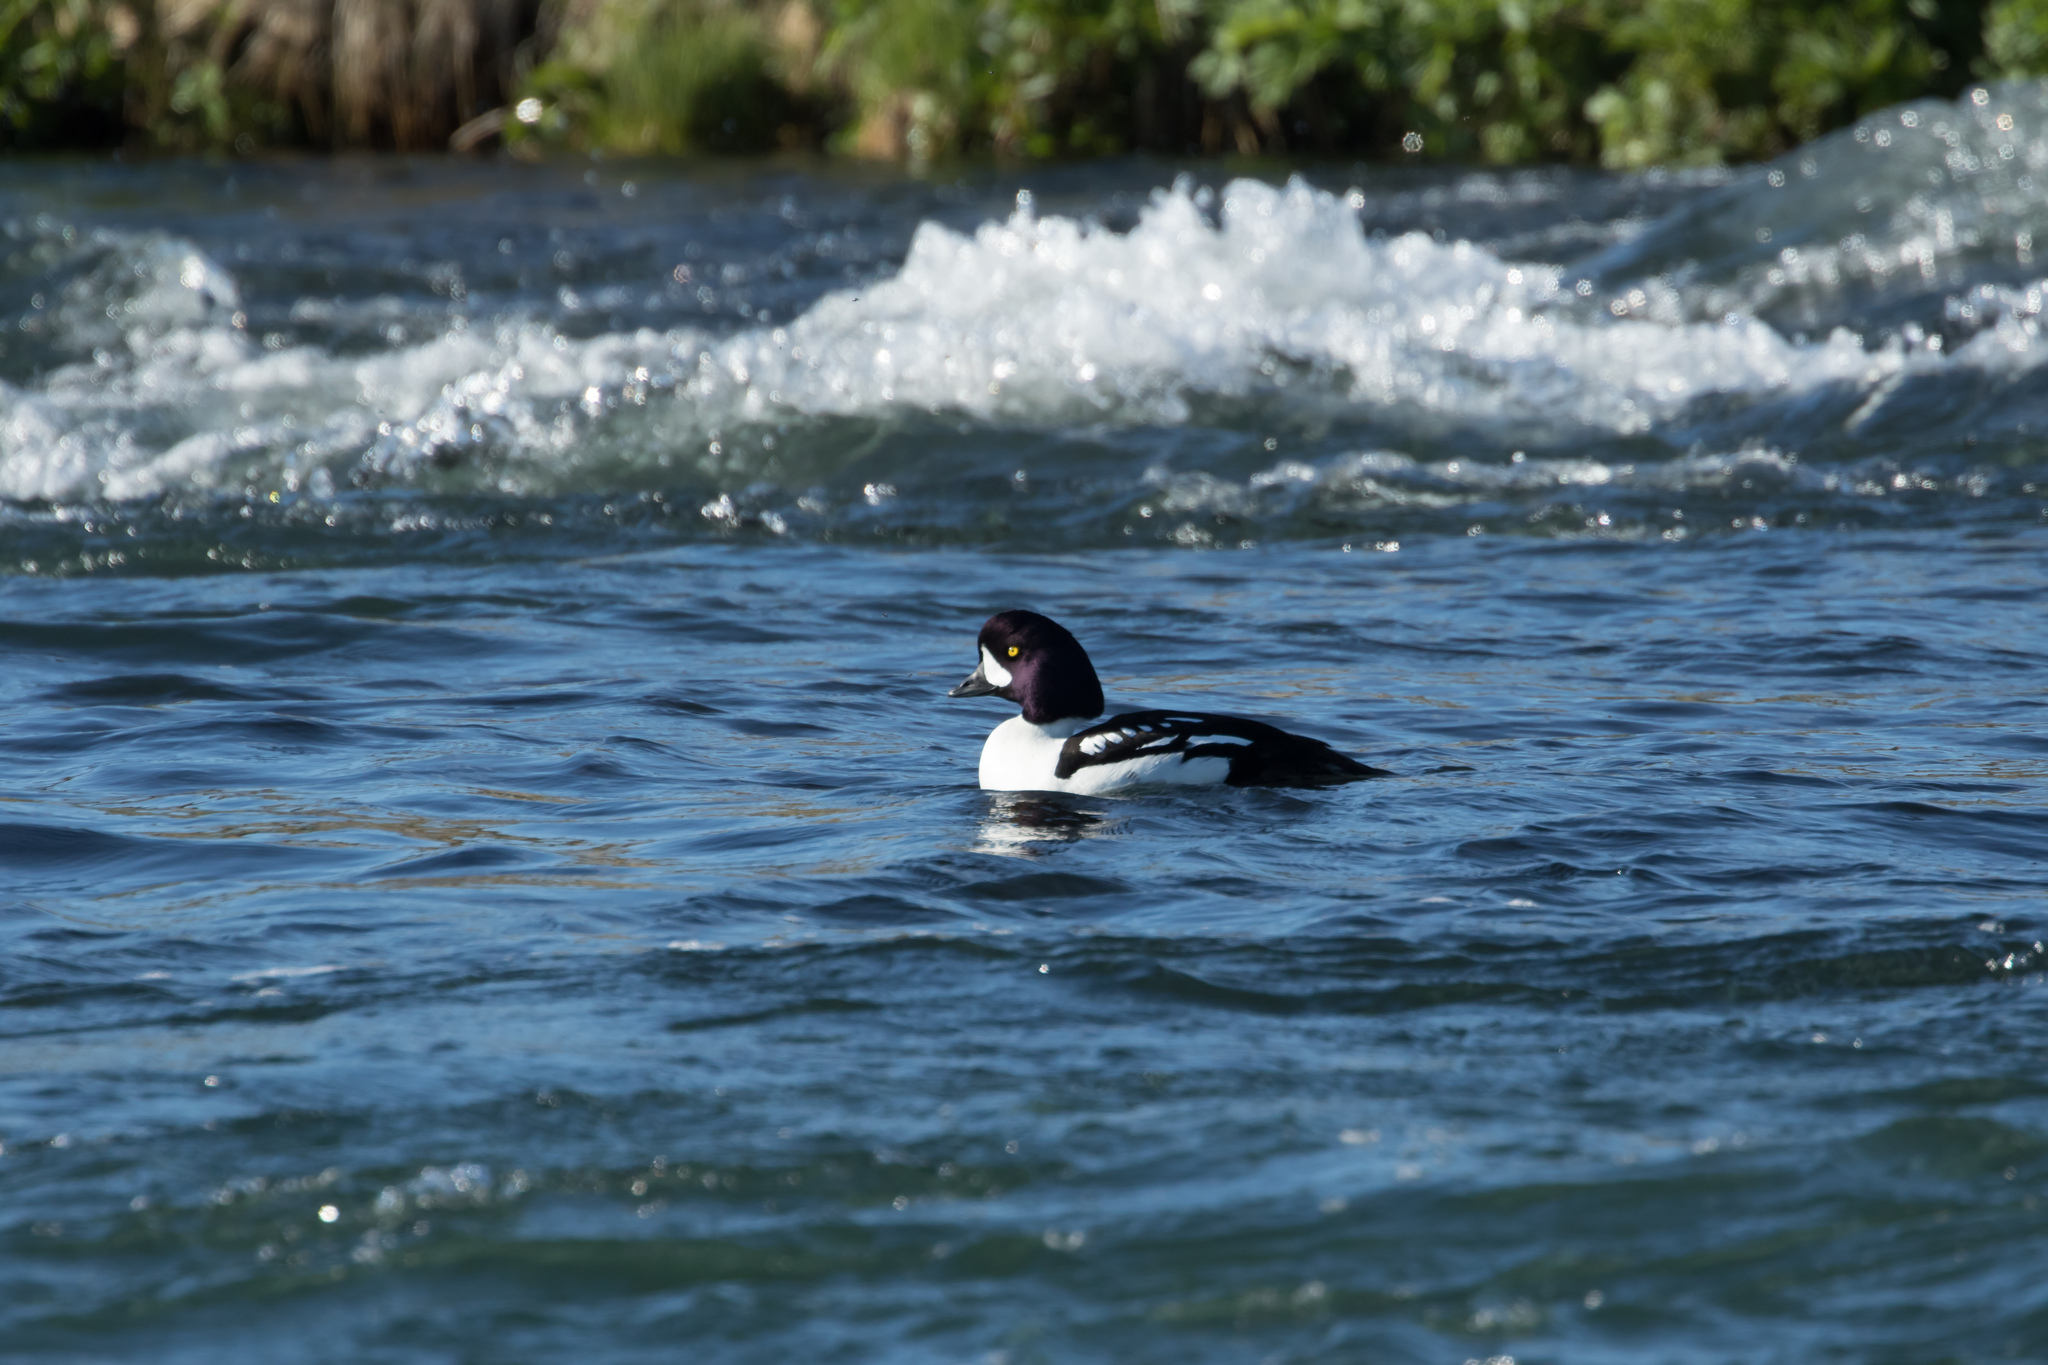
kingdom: Animalia
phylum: Chordata
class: Aves
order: Anseriformes
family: Anatidae
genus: Bucephala
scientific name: Bucephala islandica
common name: Barrow's goldeneye
